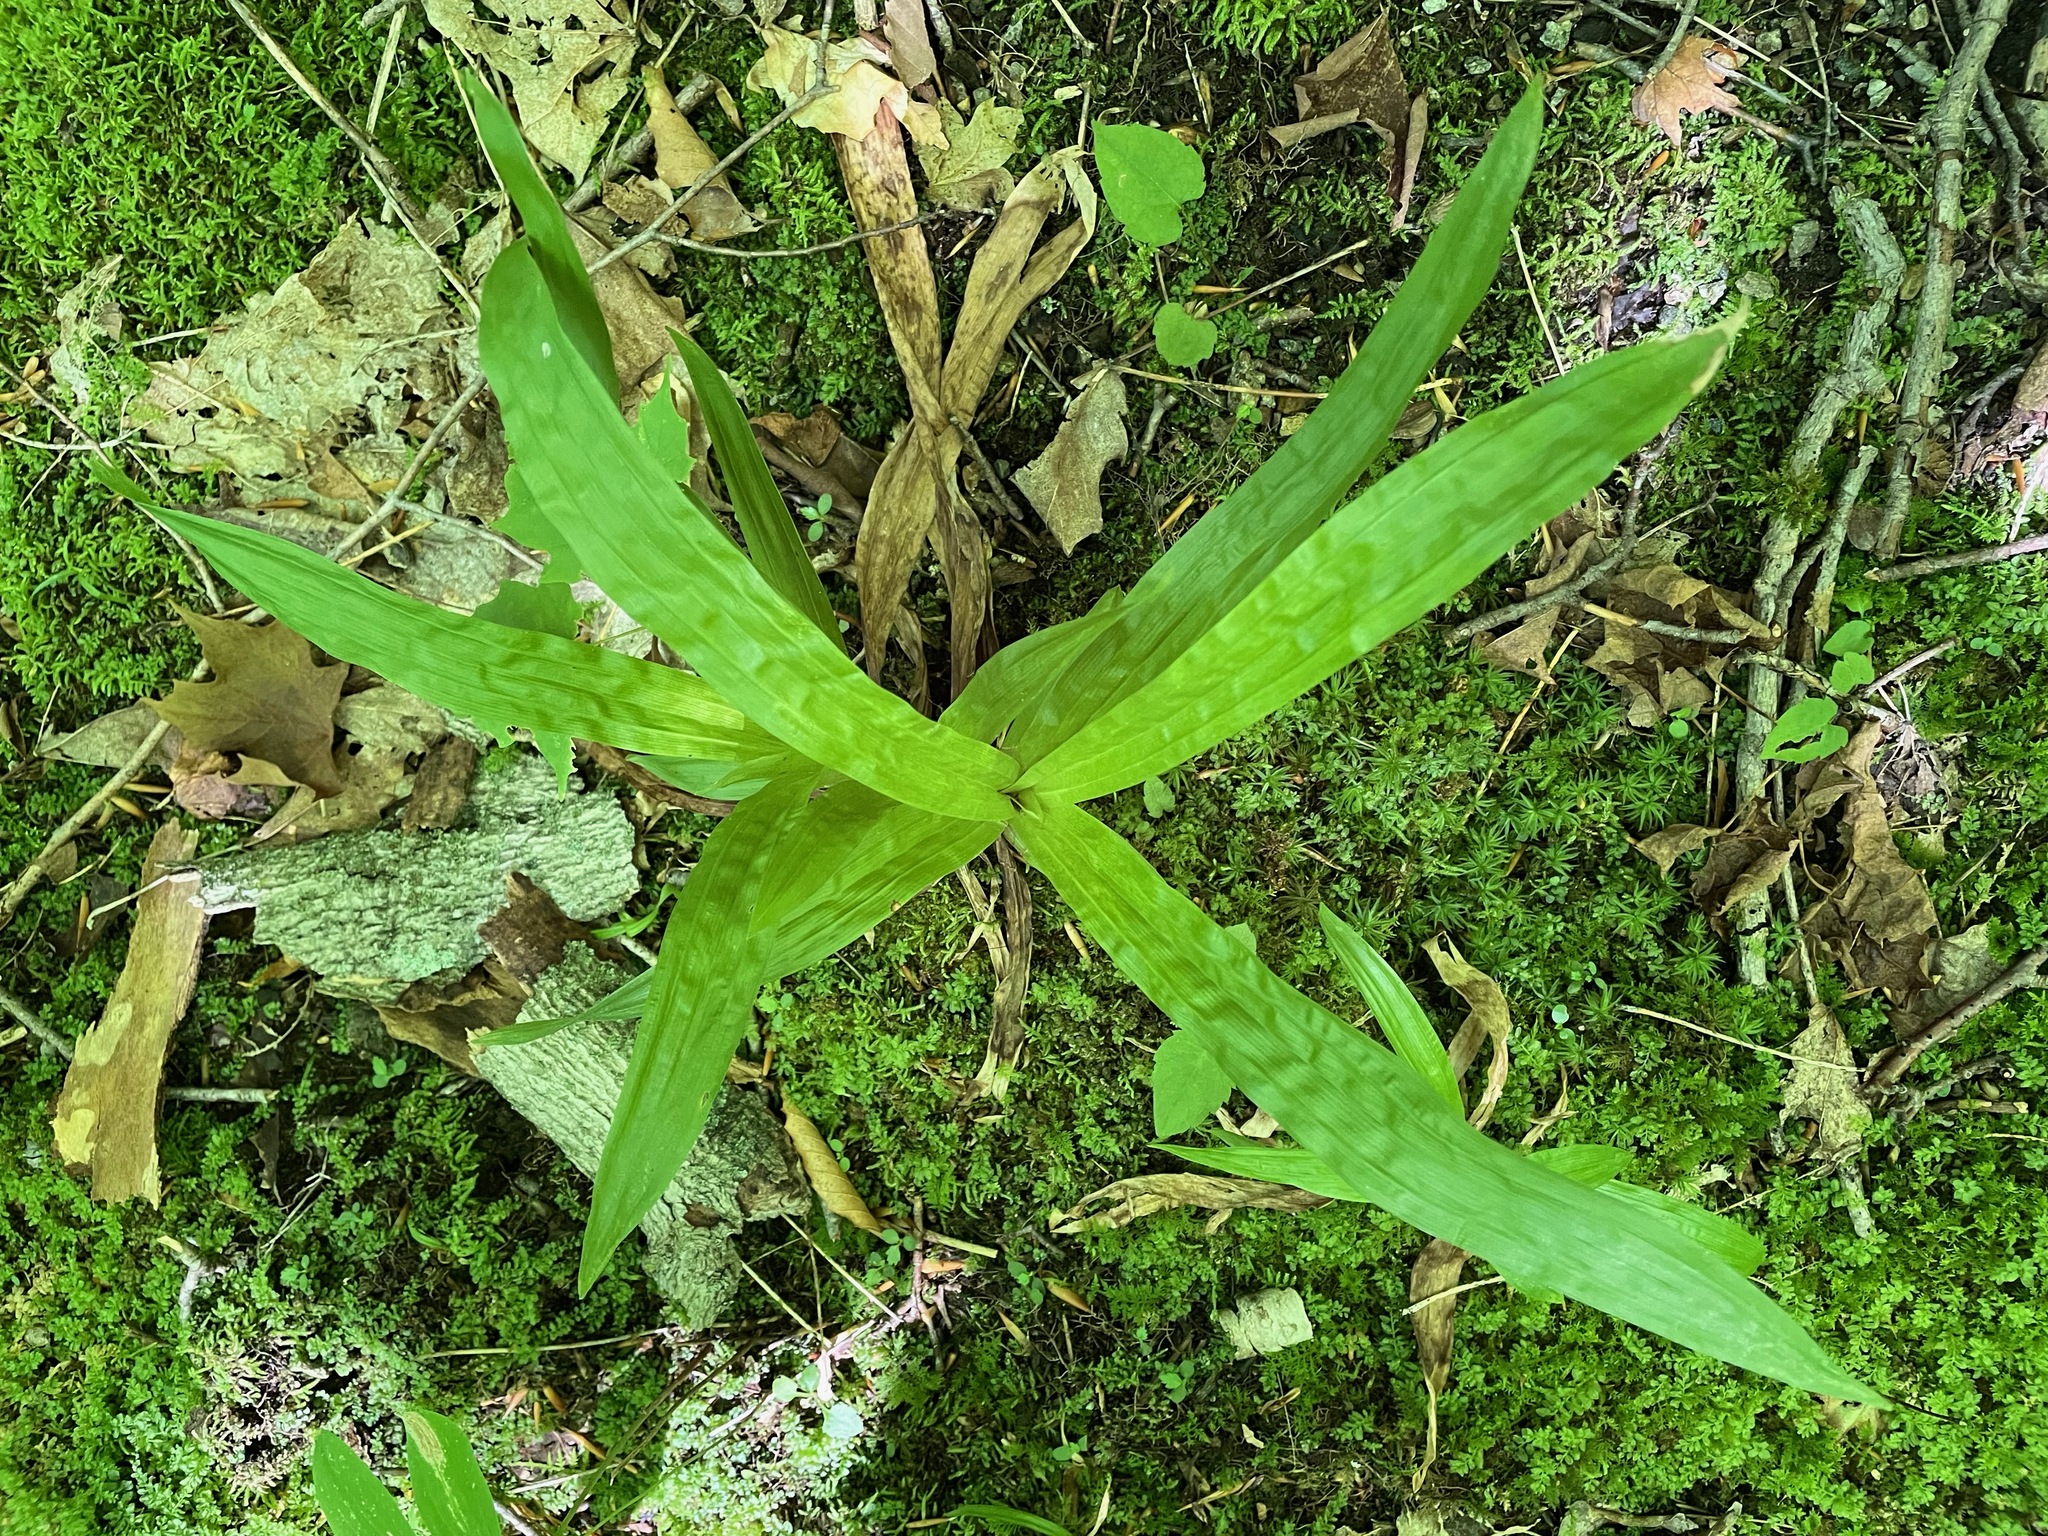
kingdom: Plantae
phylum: Tracheophyta
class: Liliopsida
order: Poales
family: Cyperaceae
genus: Carex
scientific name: Carex plantaginea
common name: Plantain-leaved sedge
